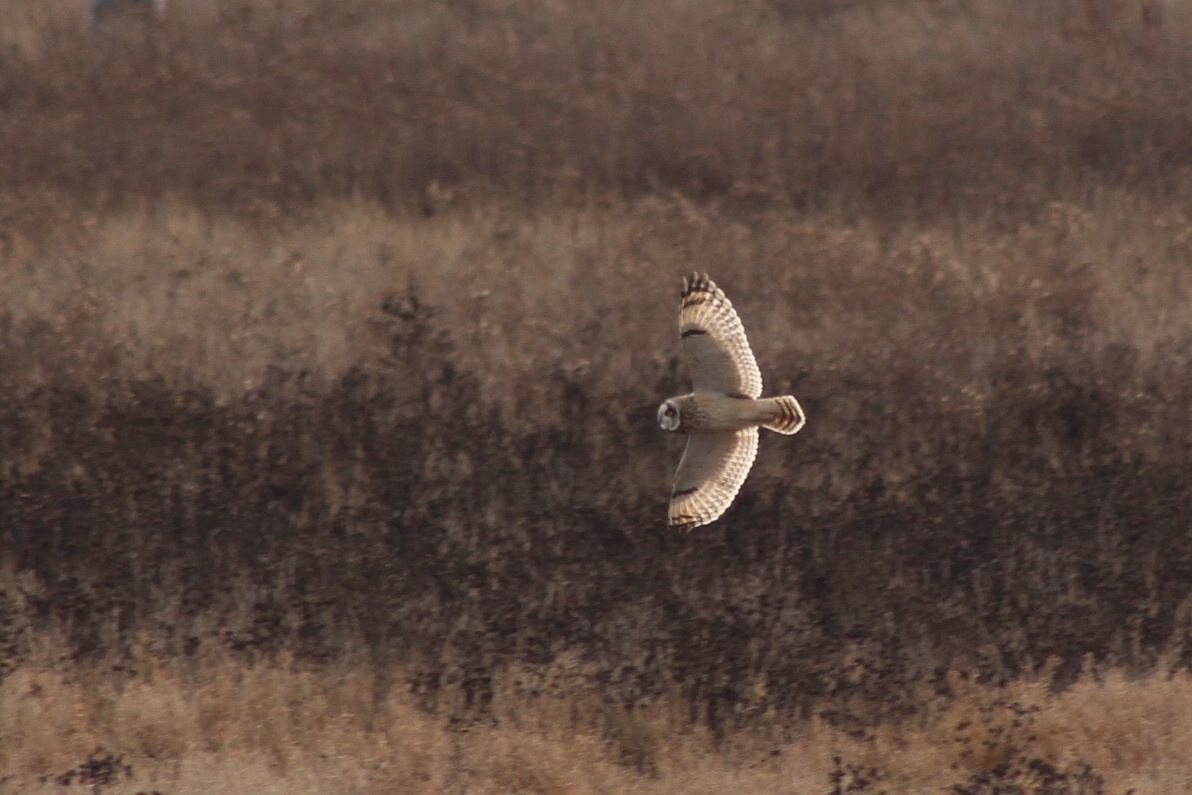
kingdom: Animalia
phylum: Chordata
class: Aves
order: Strigiformes
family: Strigidae
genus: Asio
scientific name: Asio flammeus
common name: Short-eared owl
